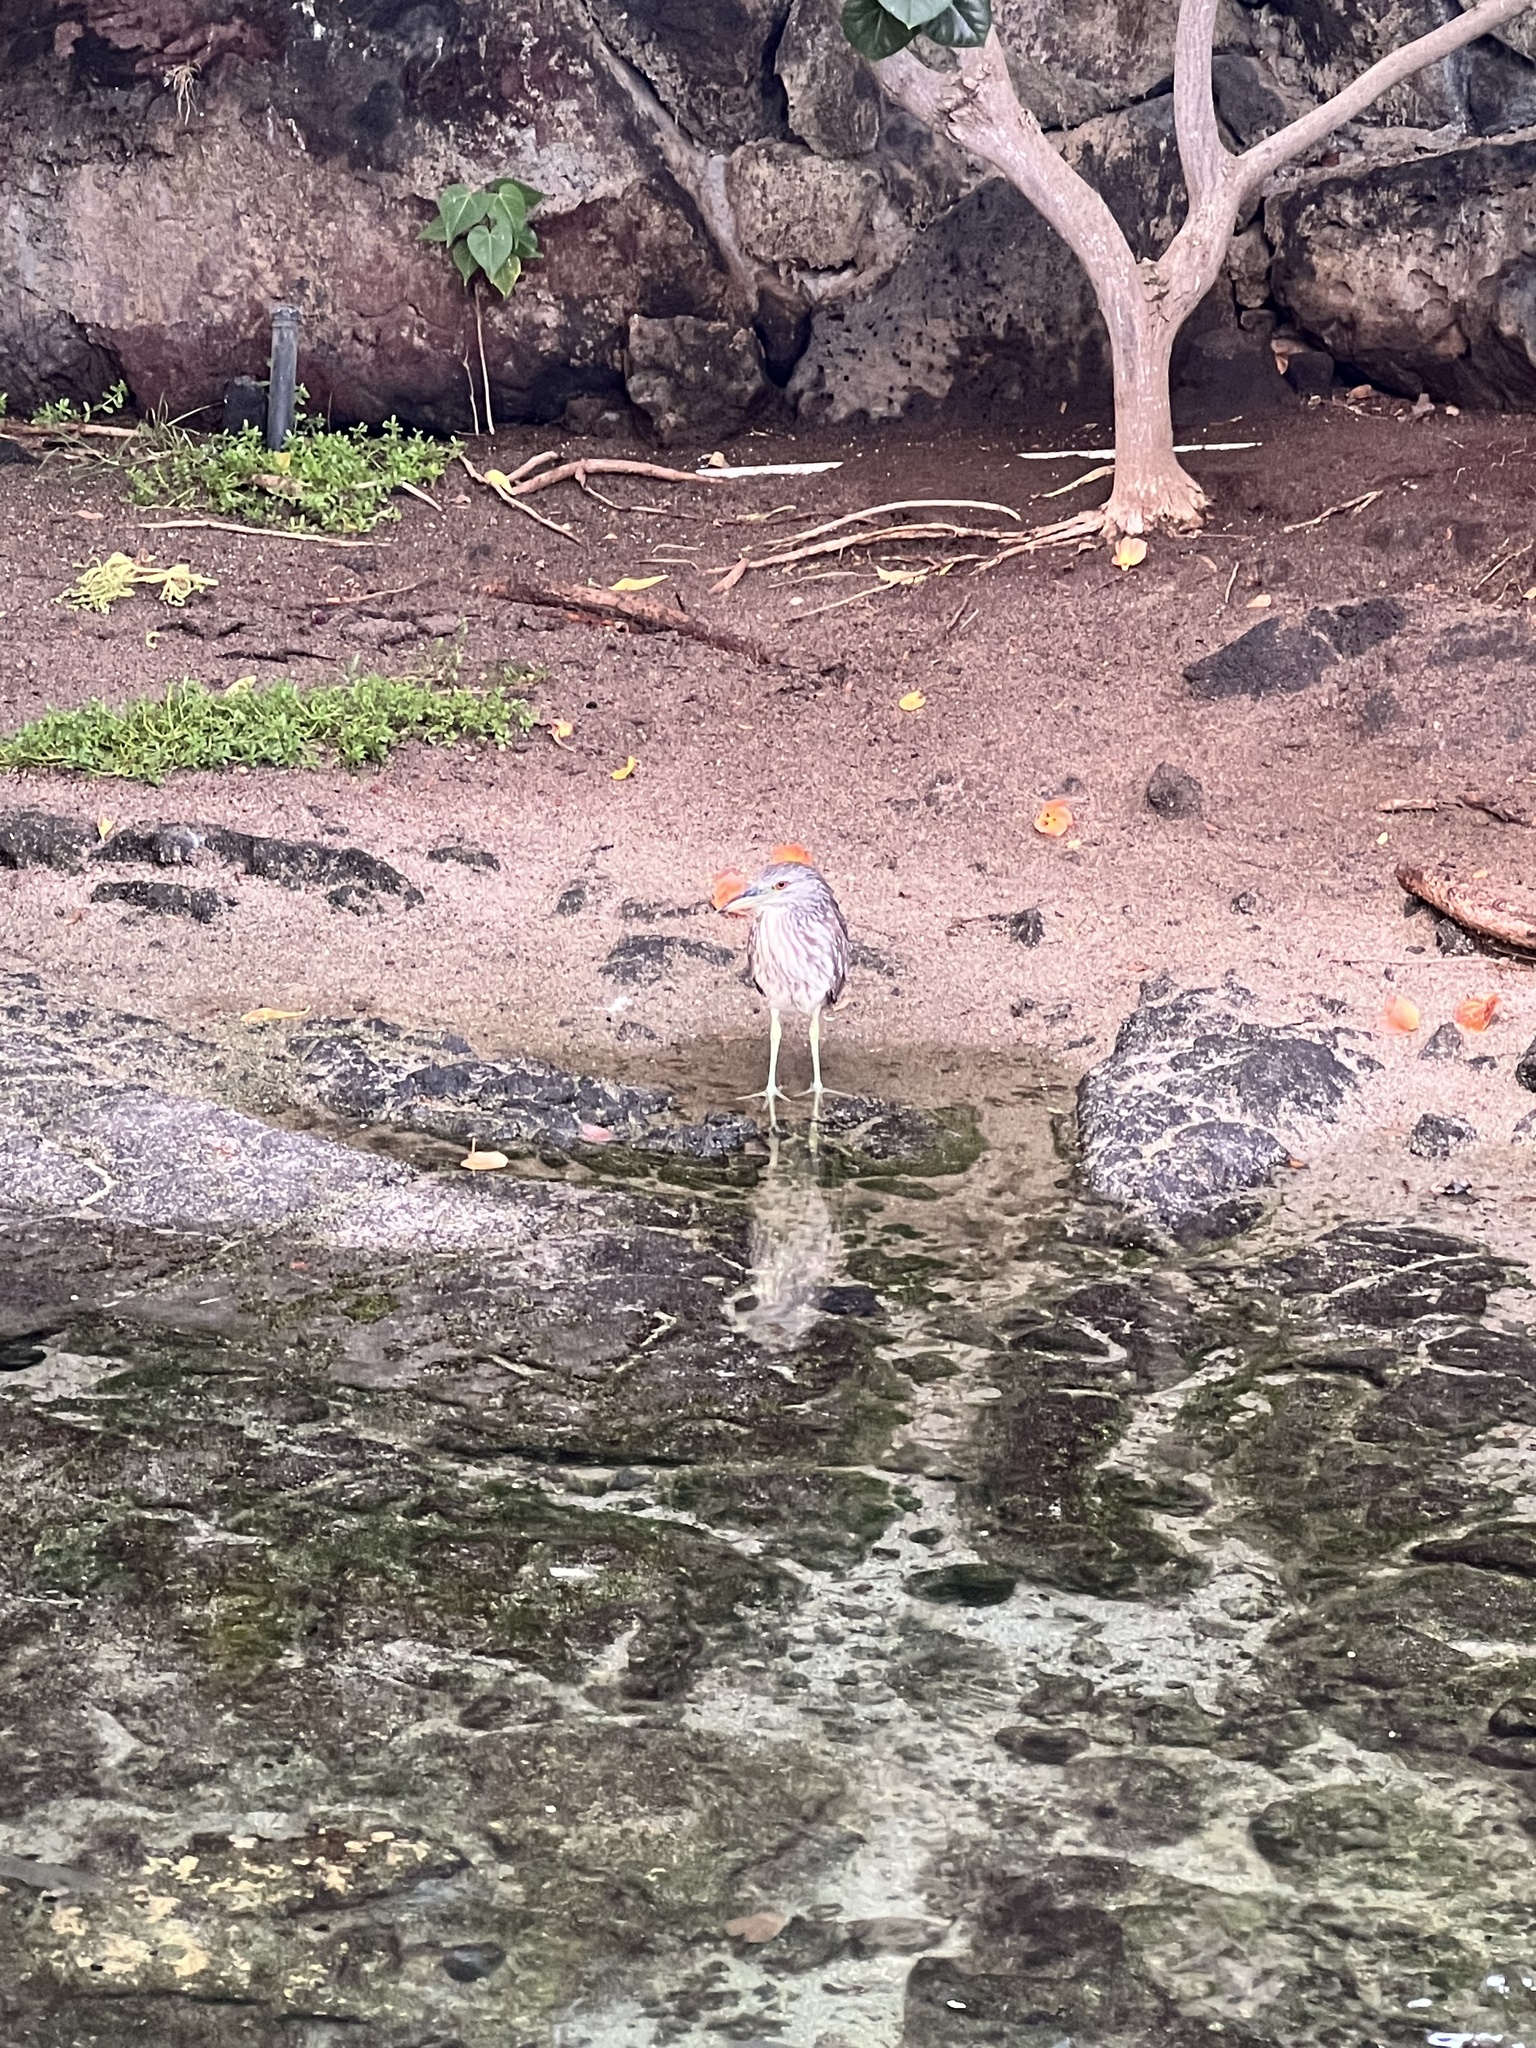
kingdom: Animalia
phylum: Chordata
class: Aves
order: Pelecaniformes
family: Ardeidae
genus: Nycticorax
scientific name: Nycticorax nycticorax
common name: Black-crowned night heron
